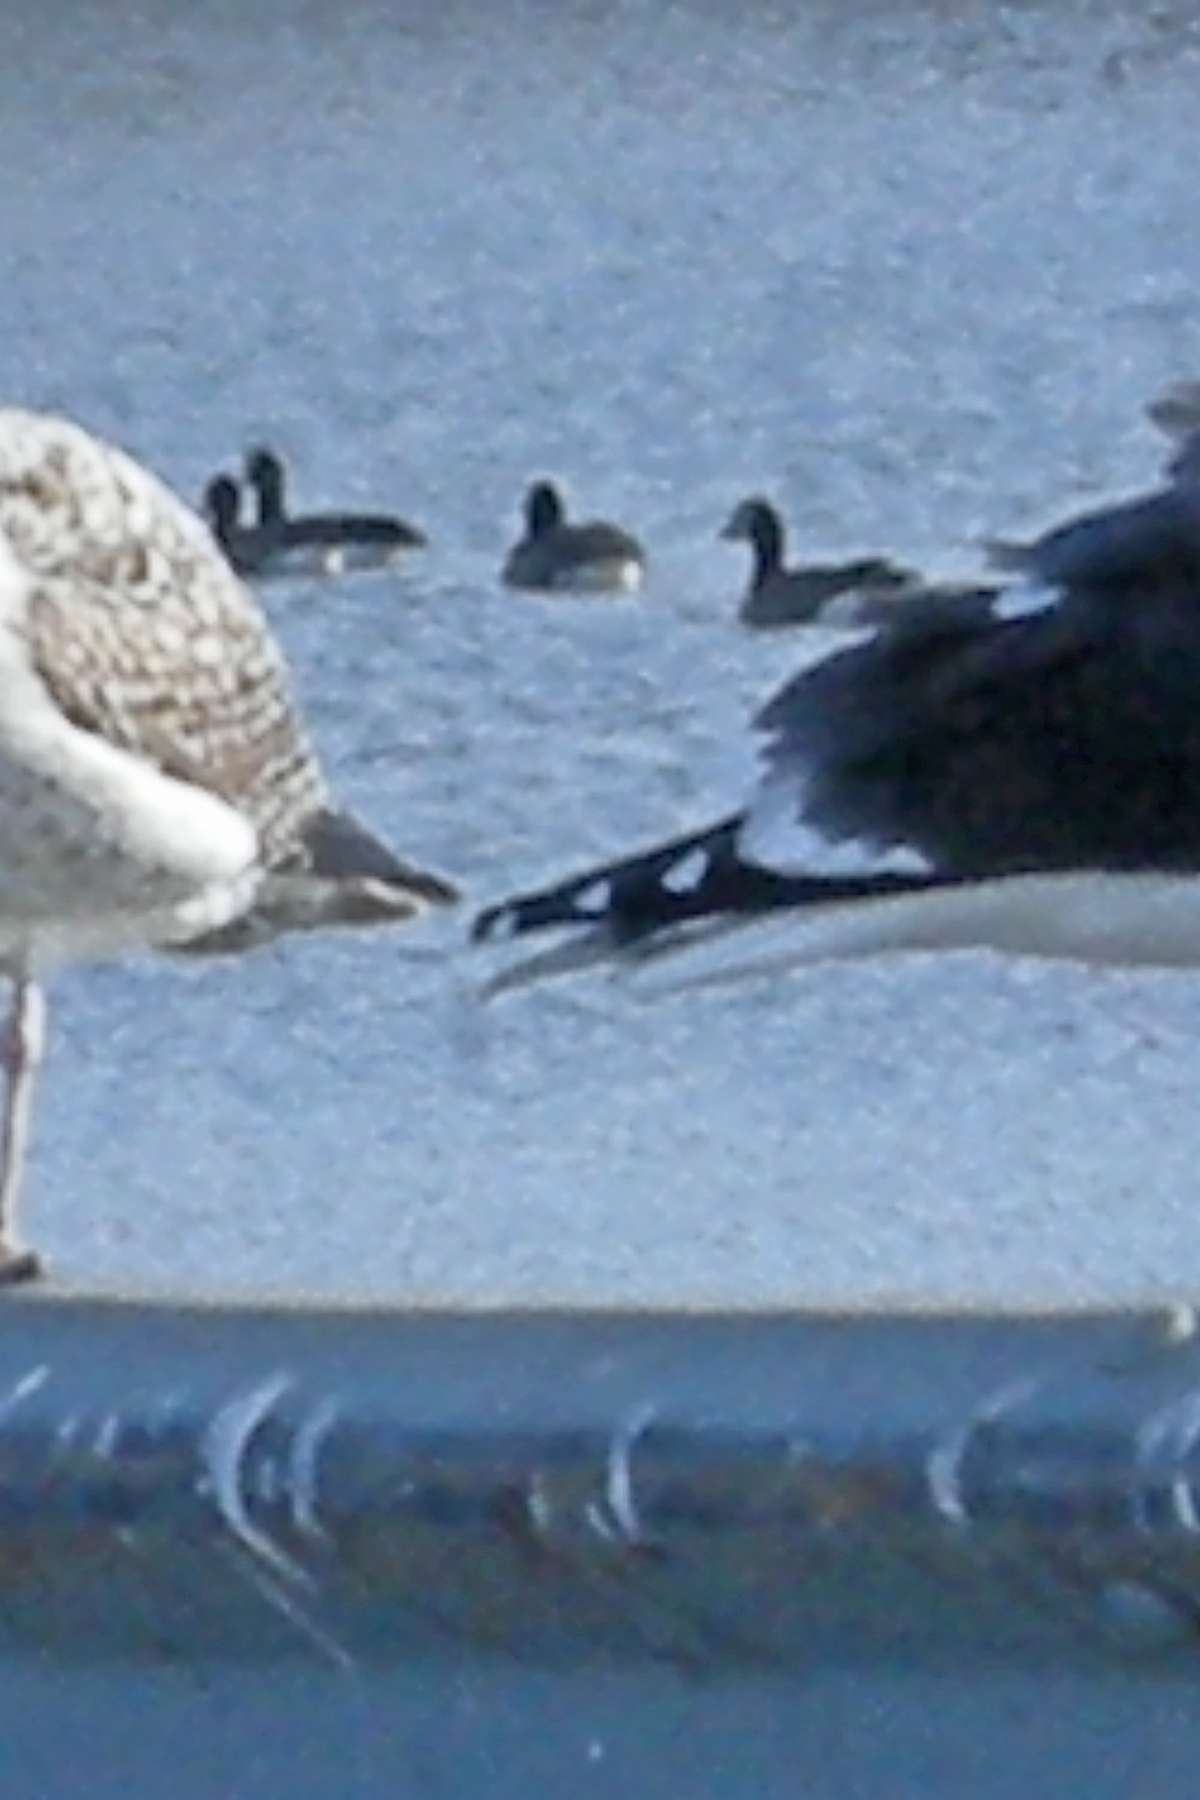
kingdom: Animalia
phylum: Chordata
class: Aves
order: Anseriformes
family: Anatidae
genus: Branta
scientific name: Branta canadensis
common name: Canada goose
